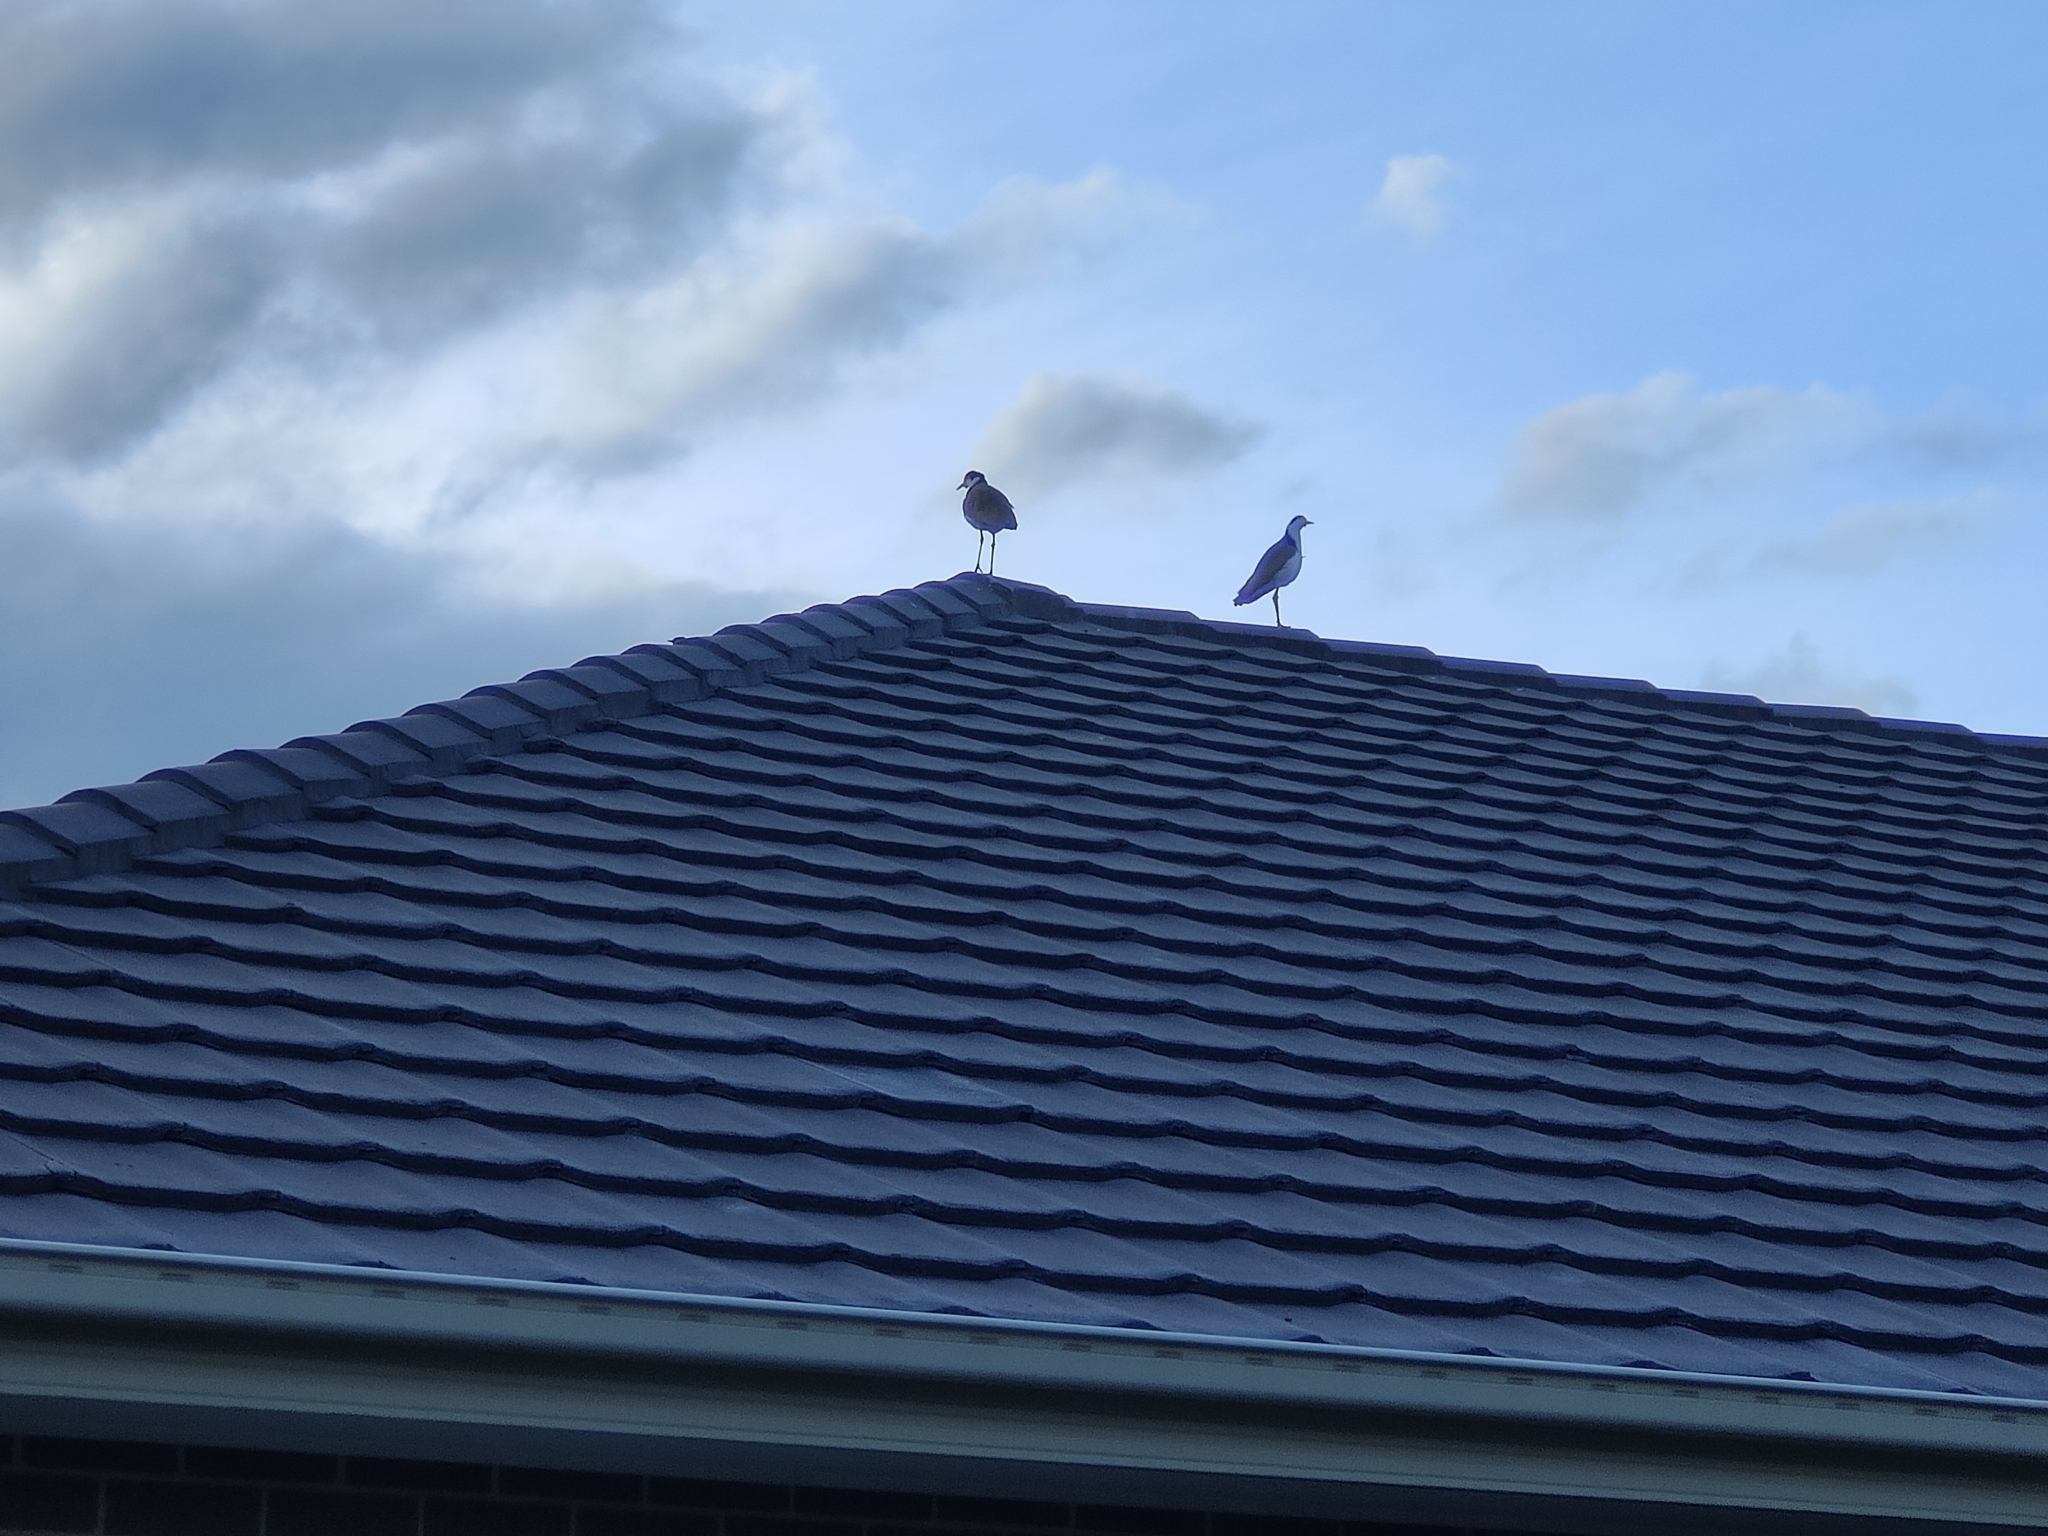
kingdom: Animalia
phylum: Chordata
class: Aves
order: Charadriiformes
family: Charadriidae
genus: Vanellus
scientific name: Vanellus miles
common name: Masked lapwing
